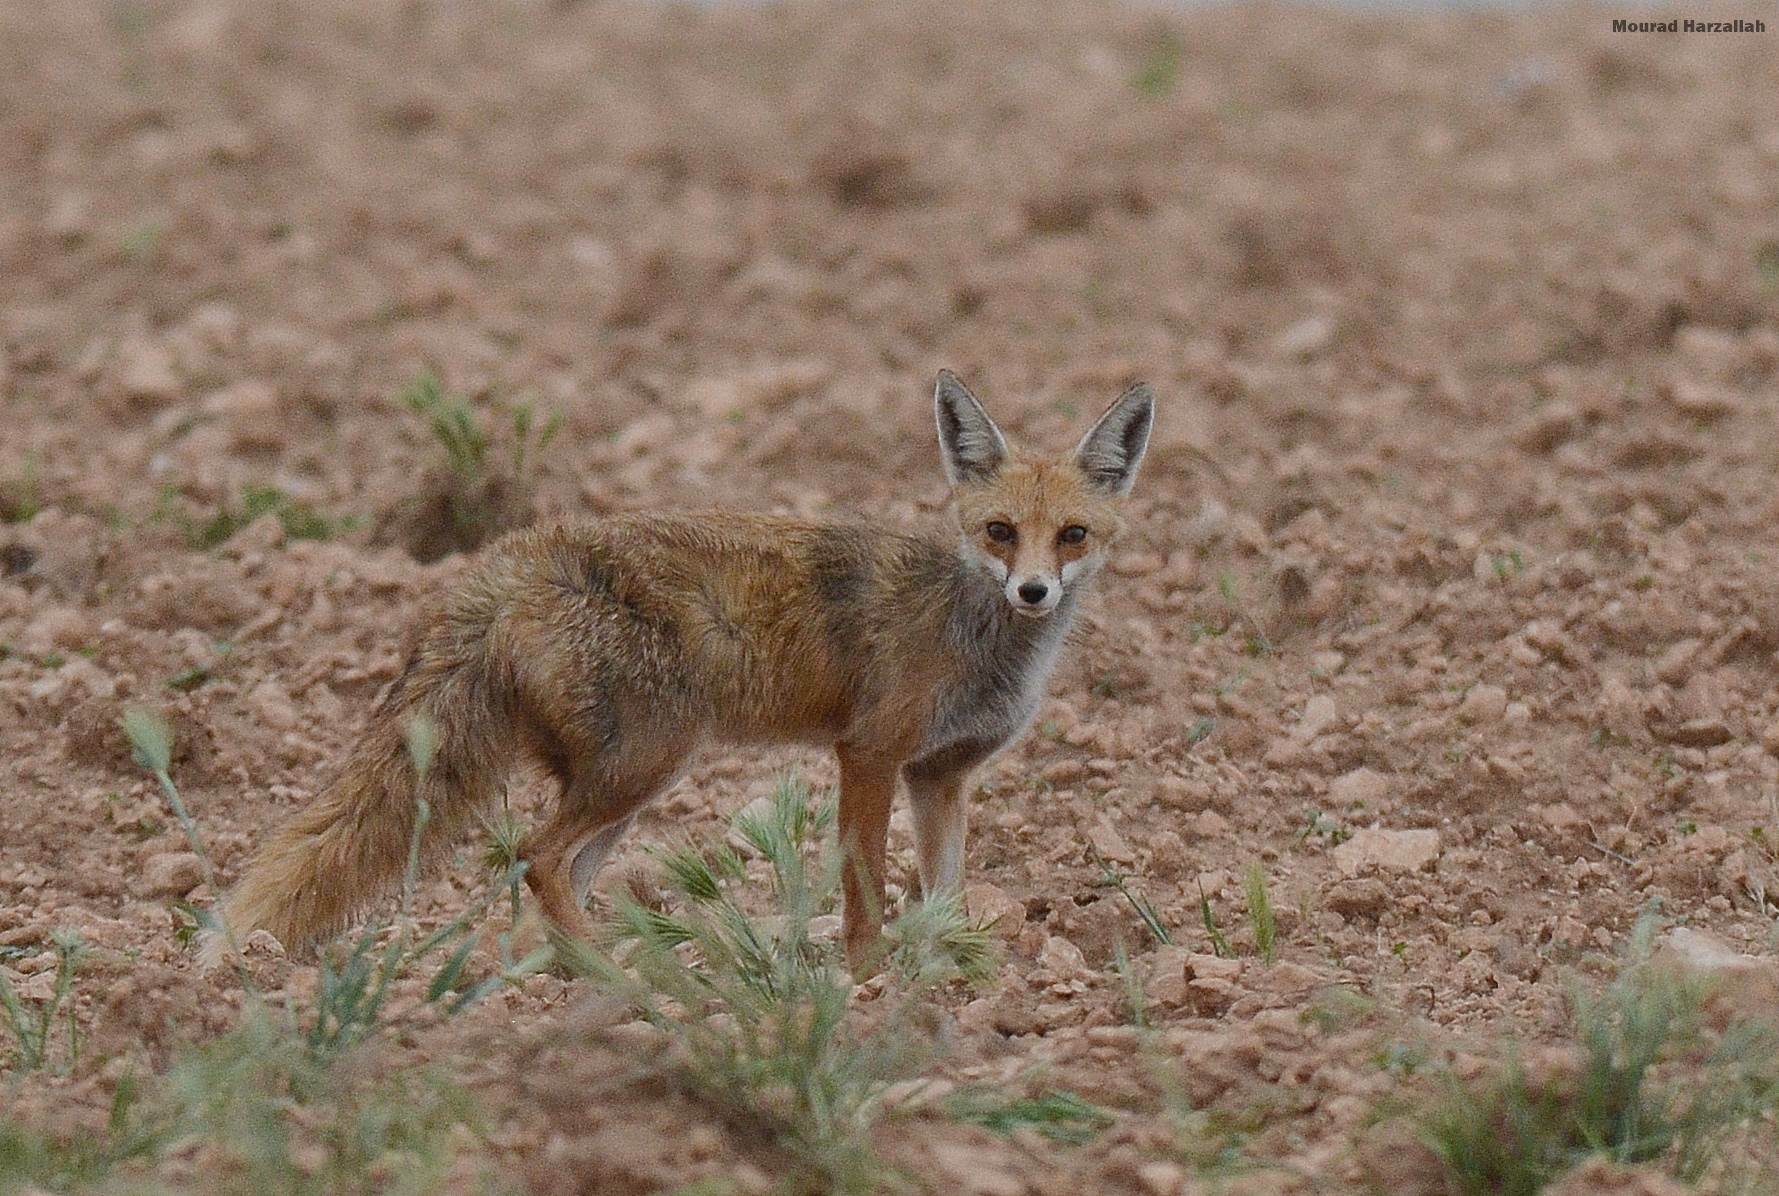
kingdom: Animalia
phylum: Chordata
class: Mammalia
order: Carnivora
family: Canidae
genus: Vulpes
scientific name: Vulpes vulpes
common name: Red fox
